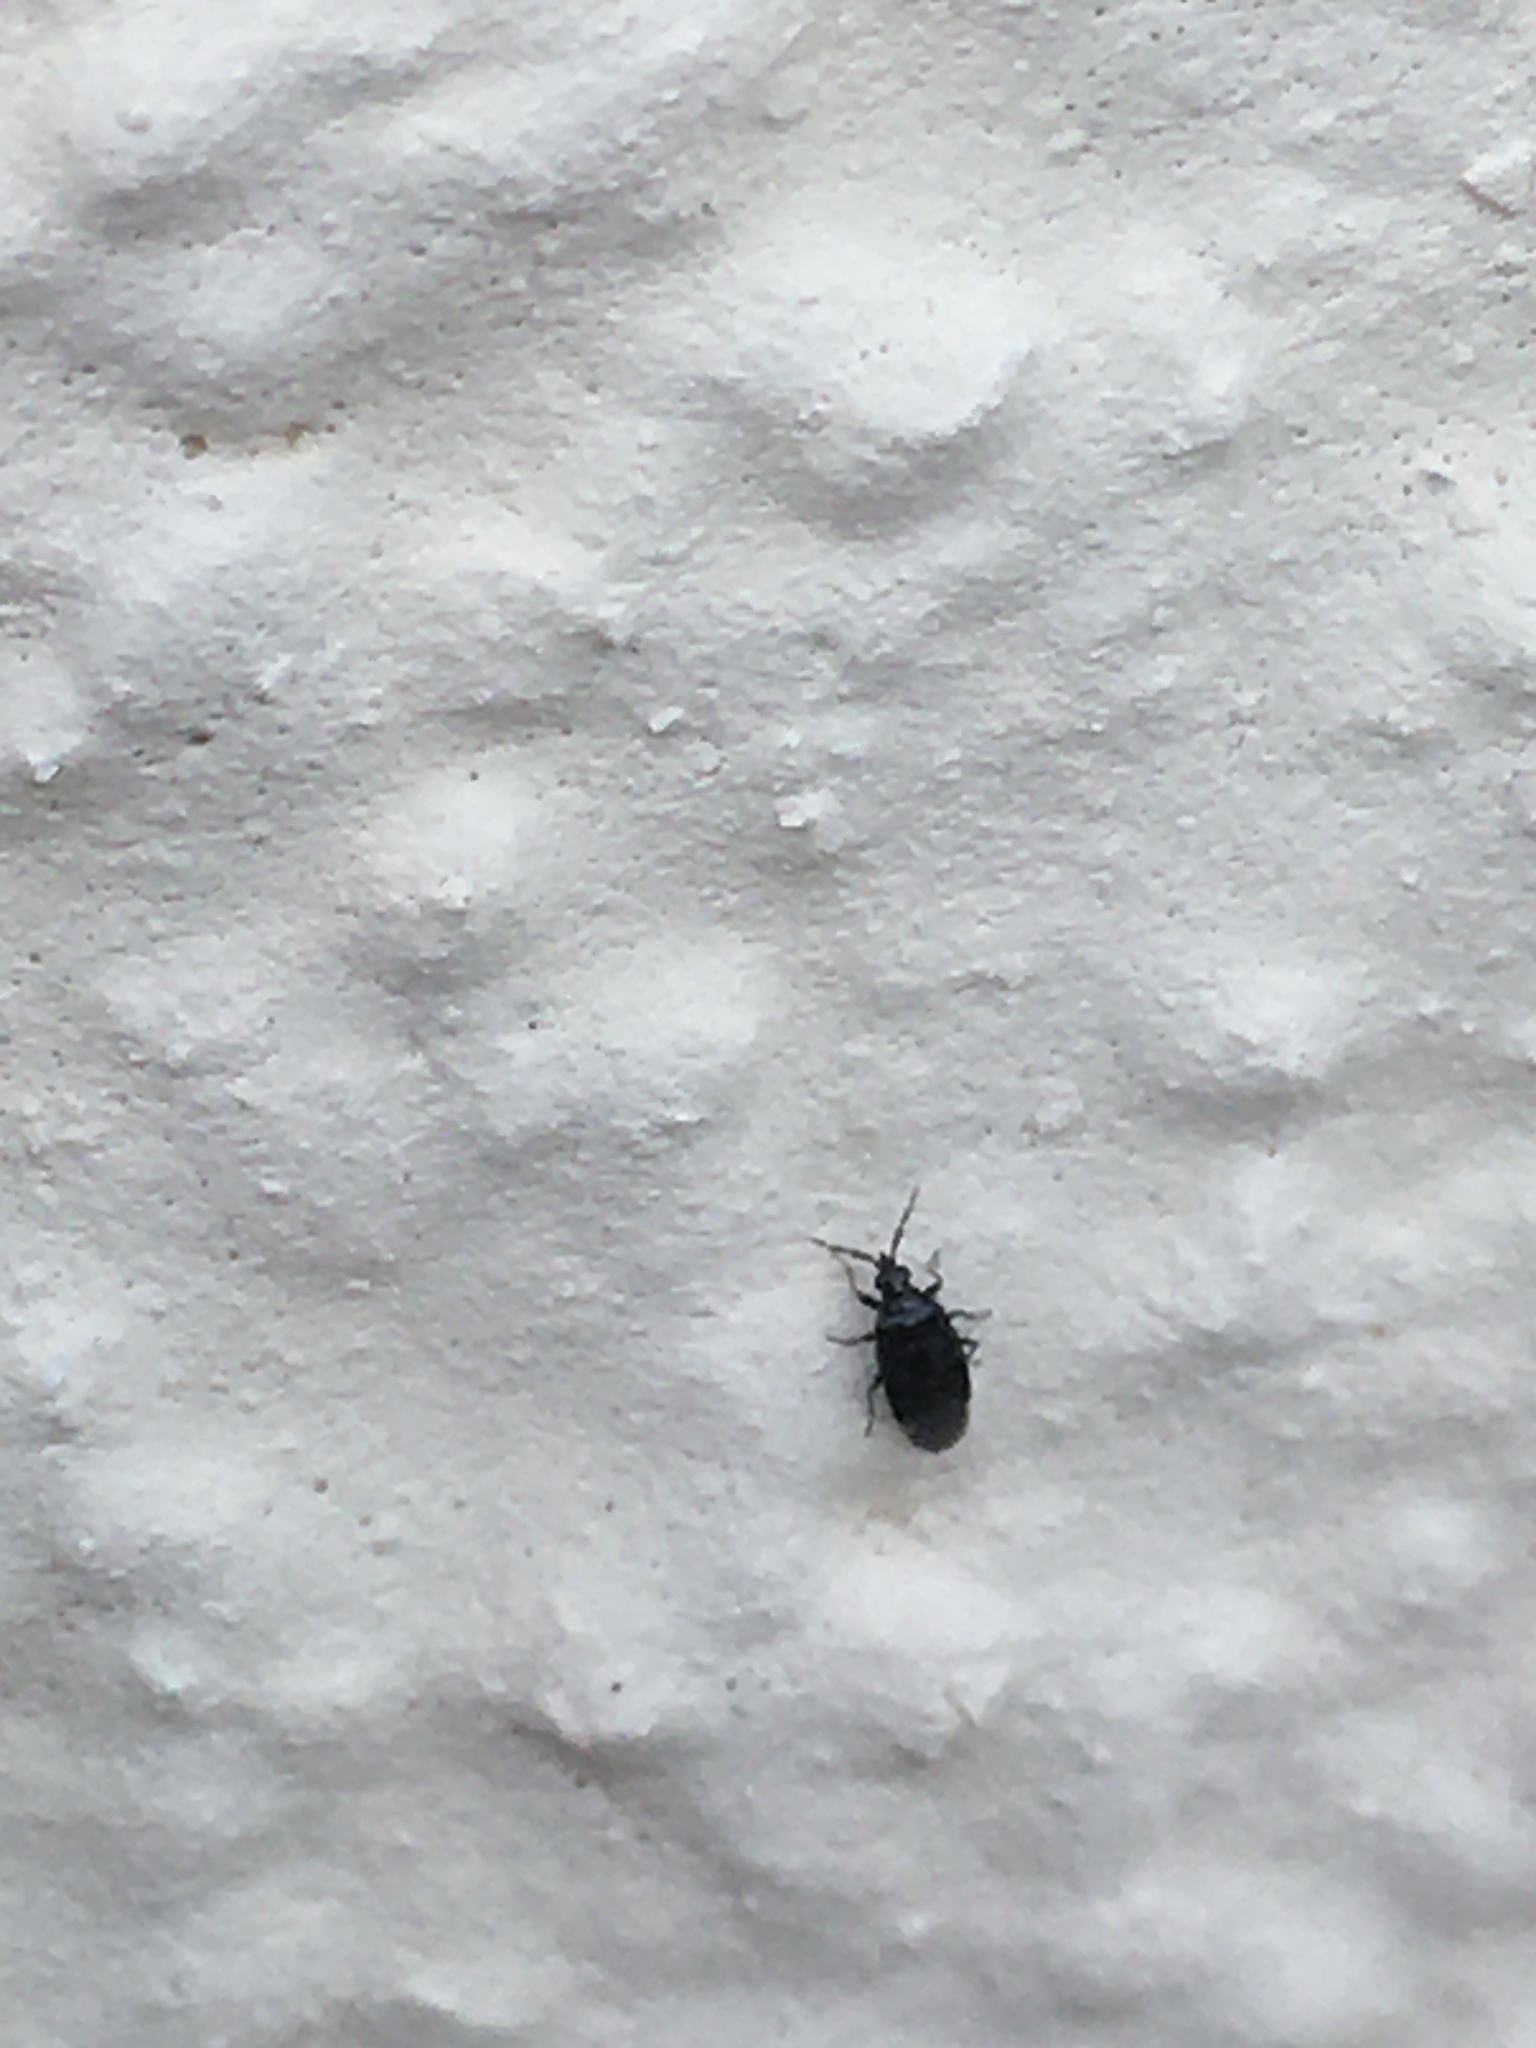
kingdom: Animalia
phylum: Arthropoda
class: Insecta
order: Hemiptera
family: Anthocoridae
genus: Orius
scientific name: Orius niger
